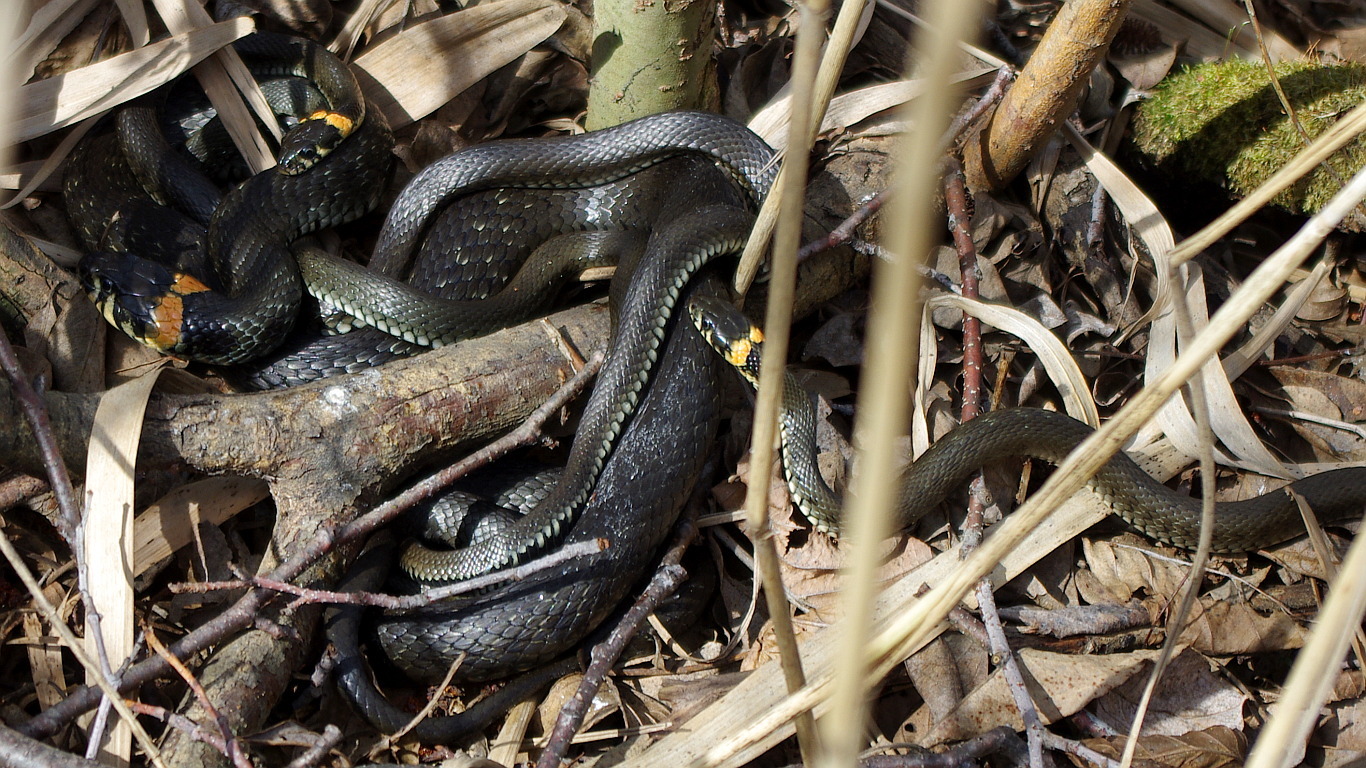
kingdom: Animalia
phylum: Chordata
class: Squamata
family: Colubridae
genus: Natrix
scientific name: Natrix natrix
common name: Grass snake
